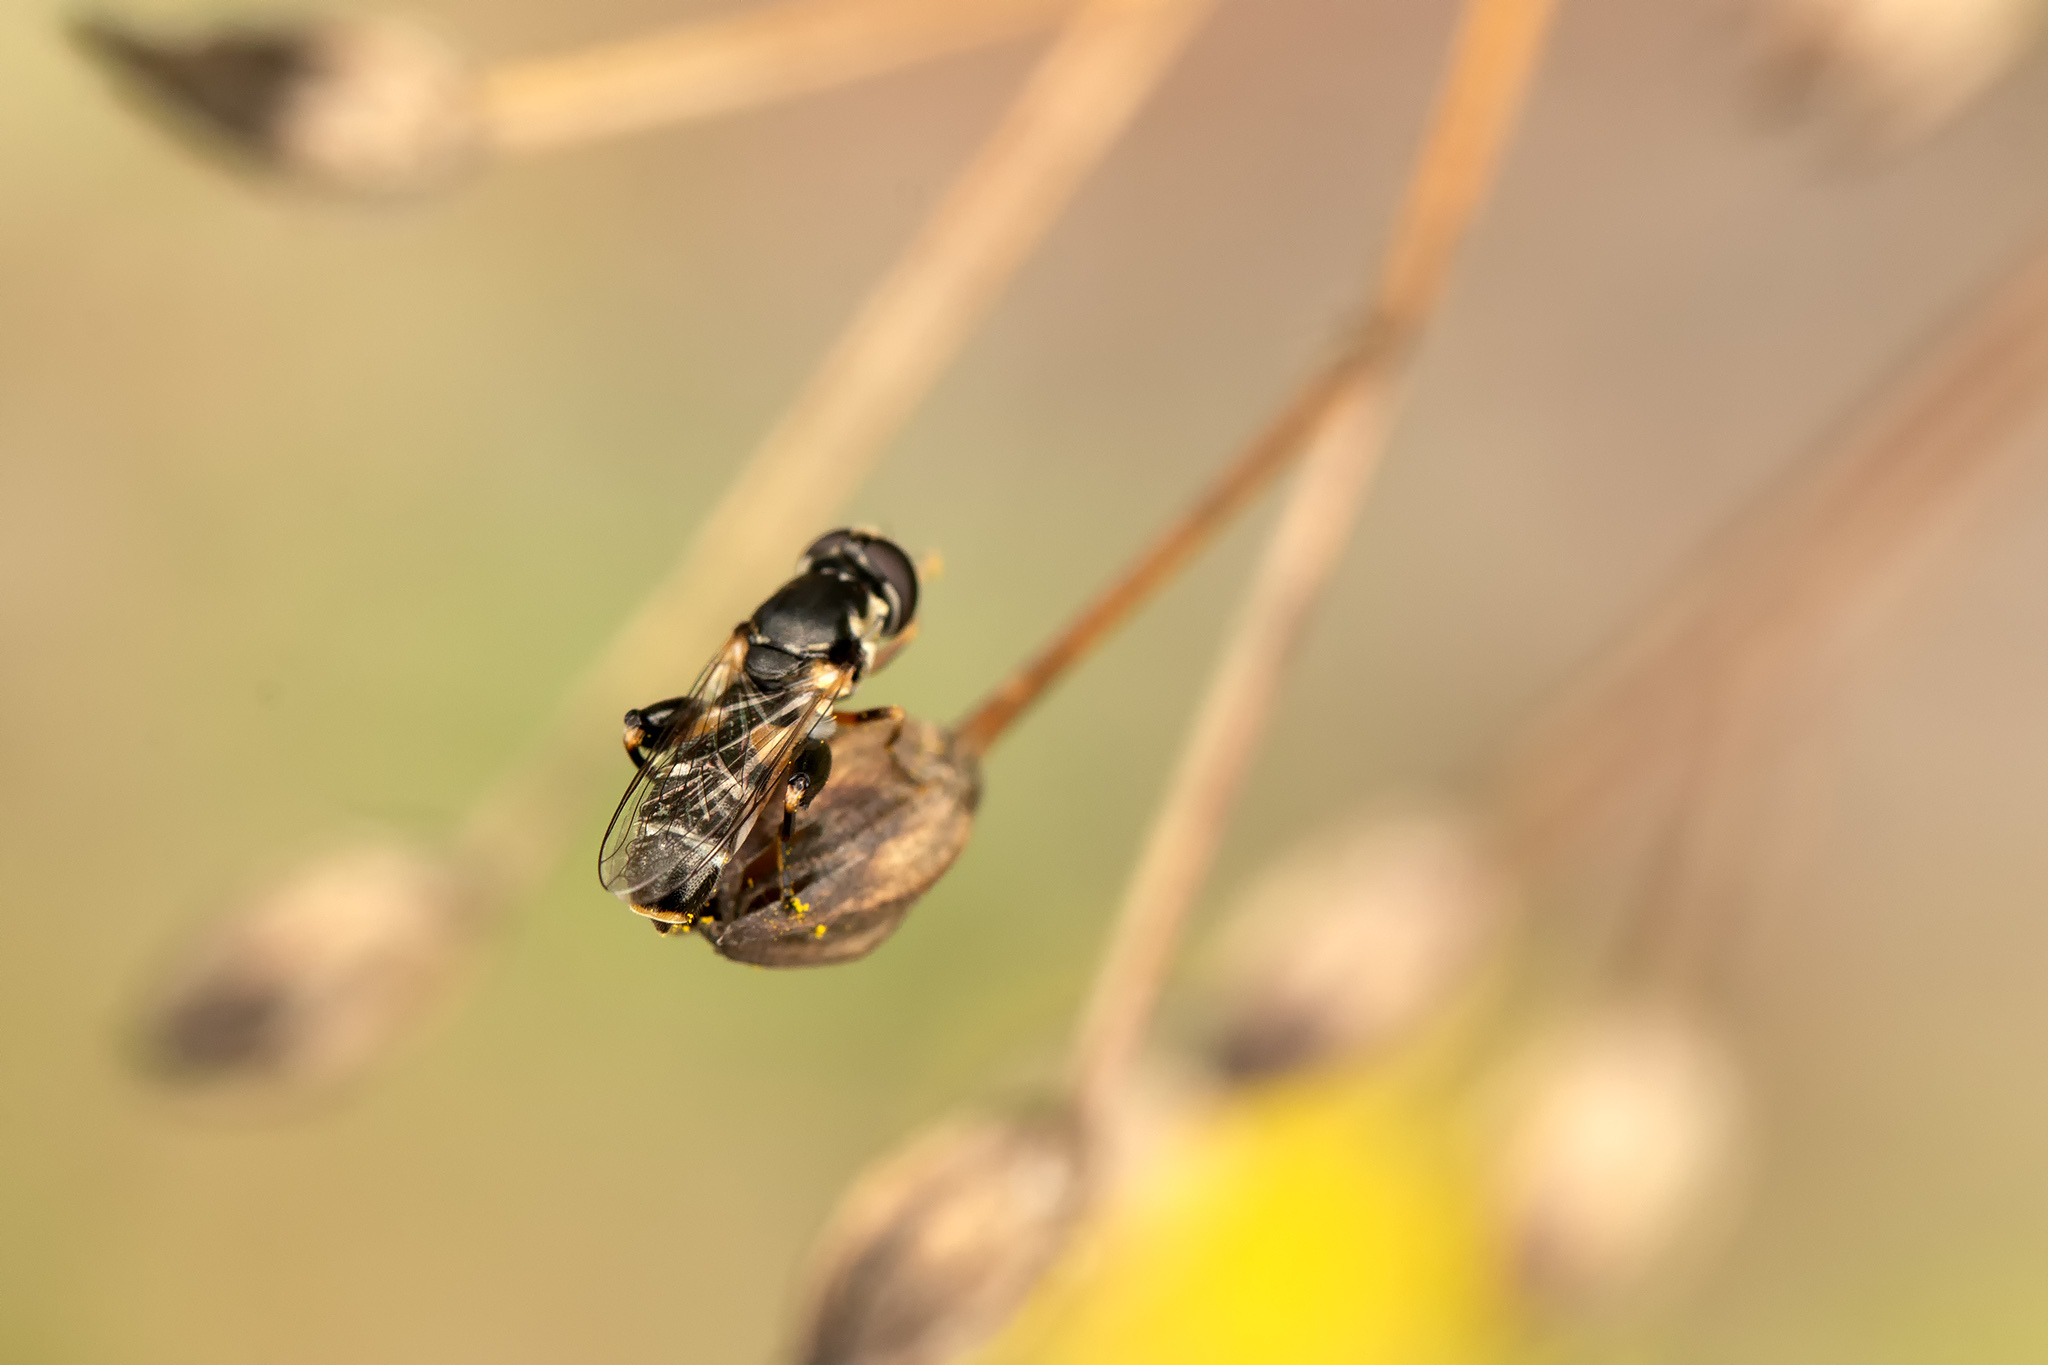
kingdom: Animalia
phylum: Arthropoda
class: Insecta
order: Diptera
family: Syrphidae
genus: Syritta
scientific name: Syritta pipiens
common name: Hover fly
